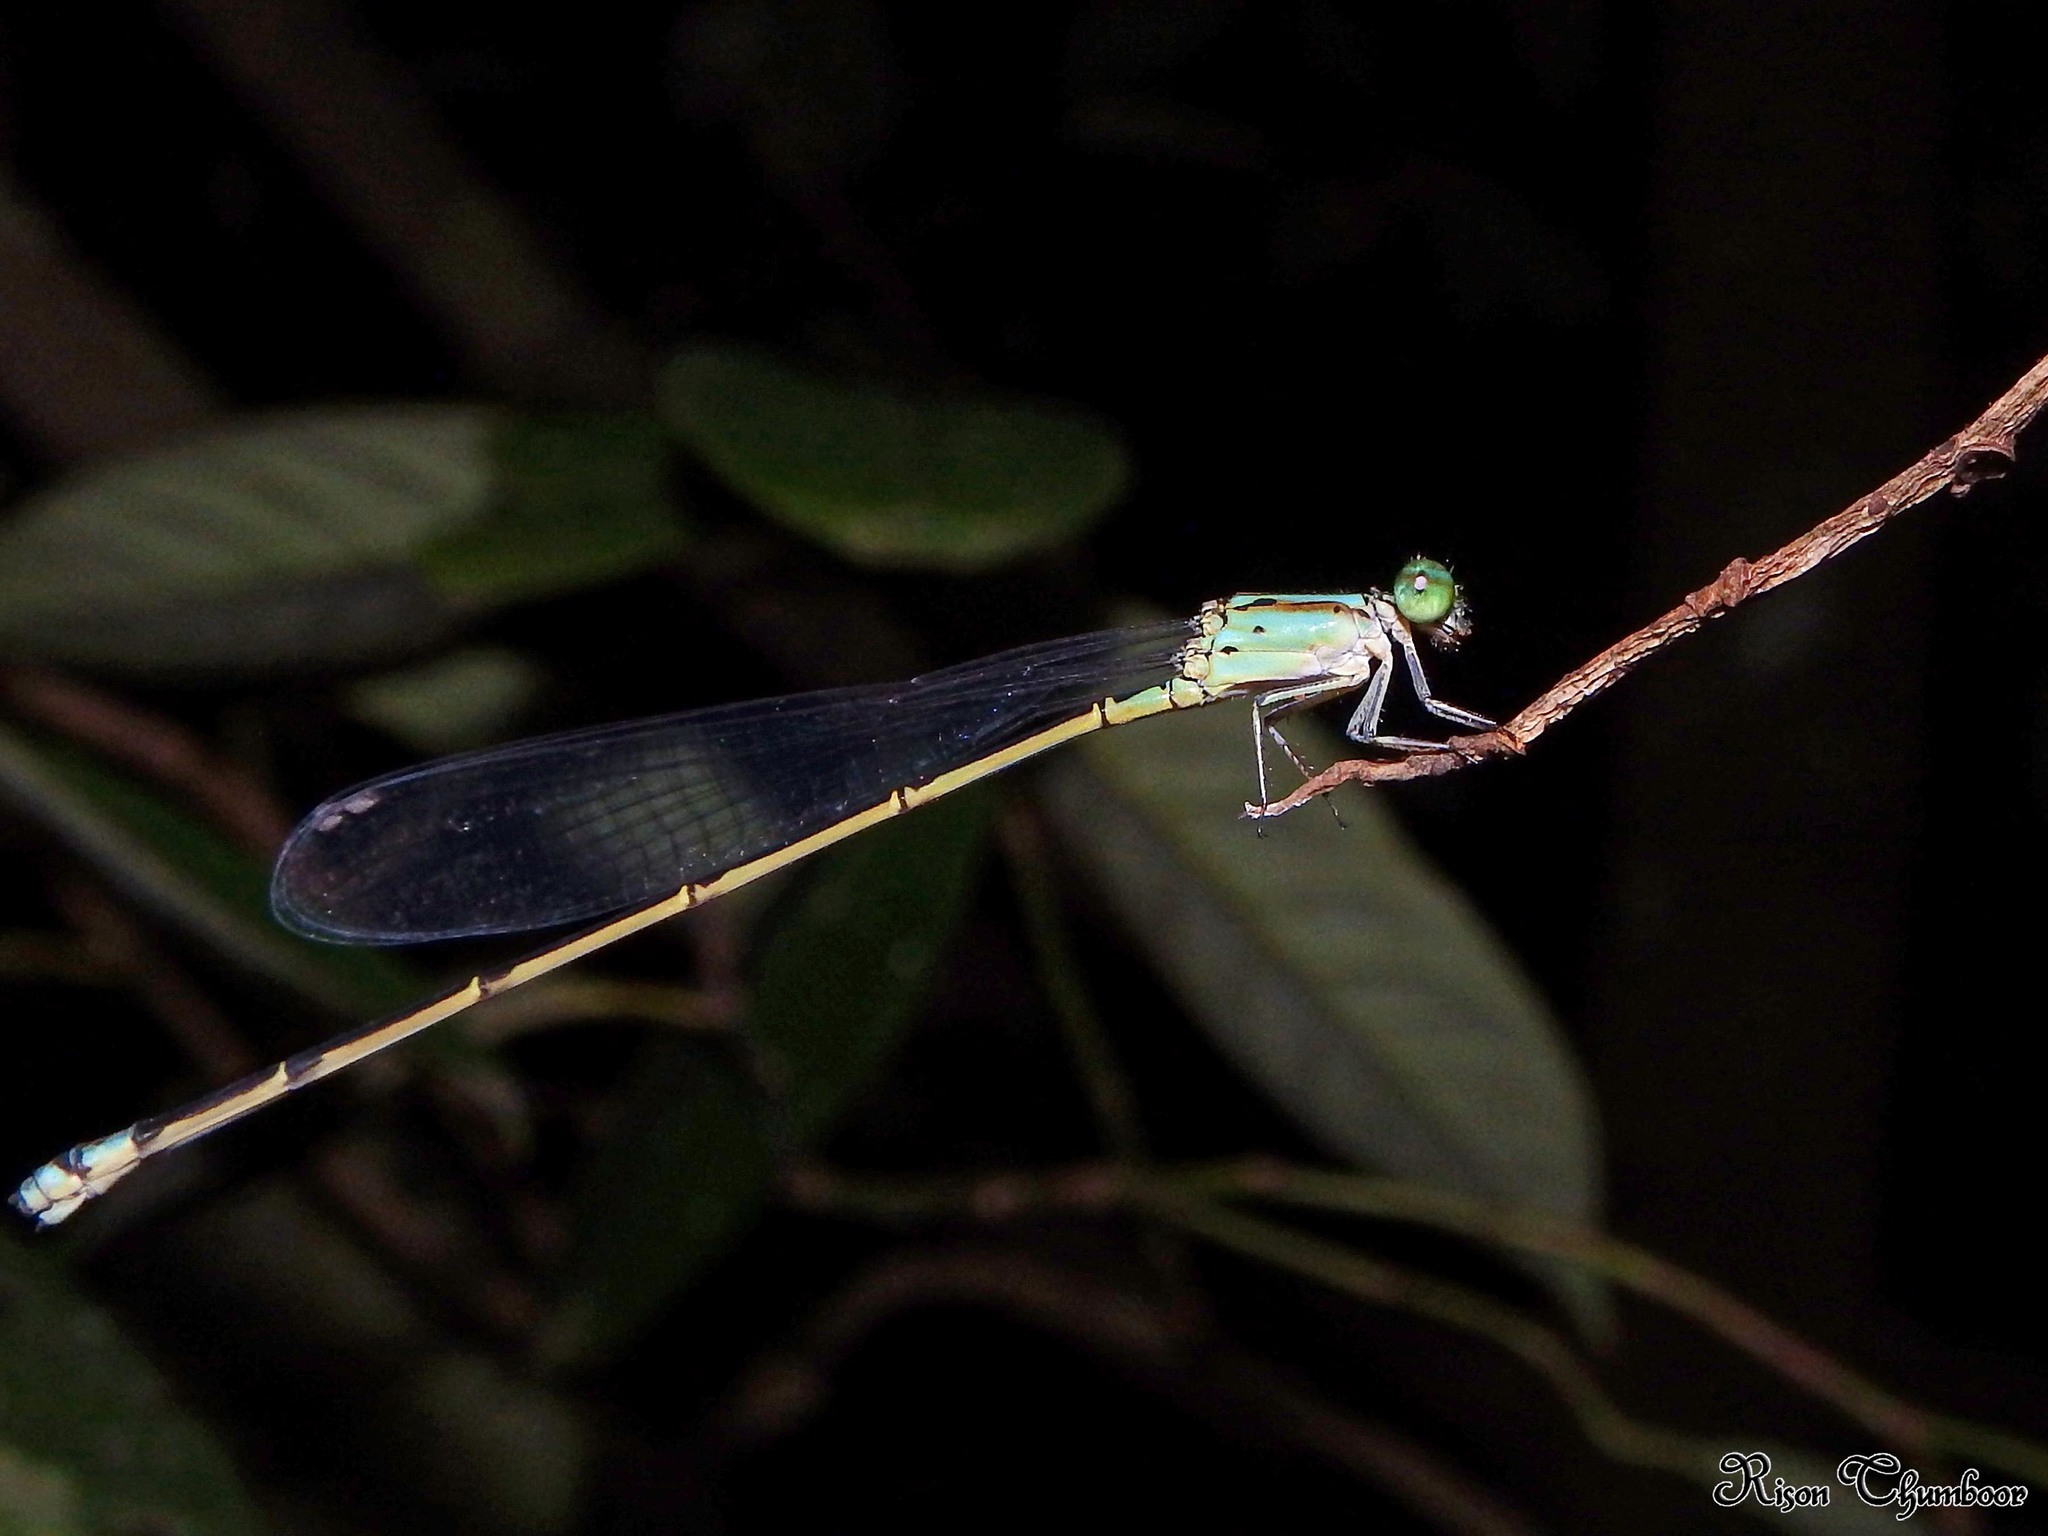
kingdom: Animalia
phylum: Arthropoda
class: Insecta
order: Odonata
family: Coenagrionidae
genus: Archibasis
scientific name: Archibasis oscillans
